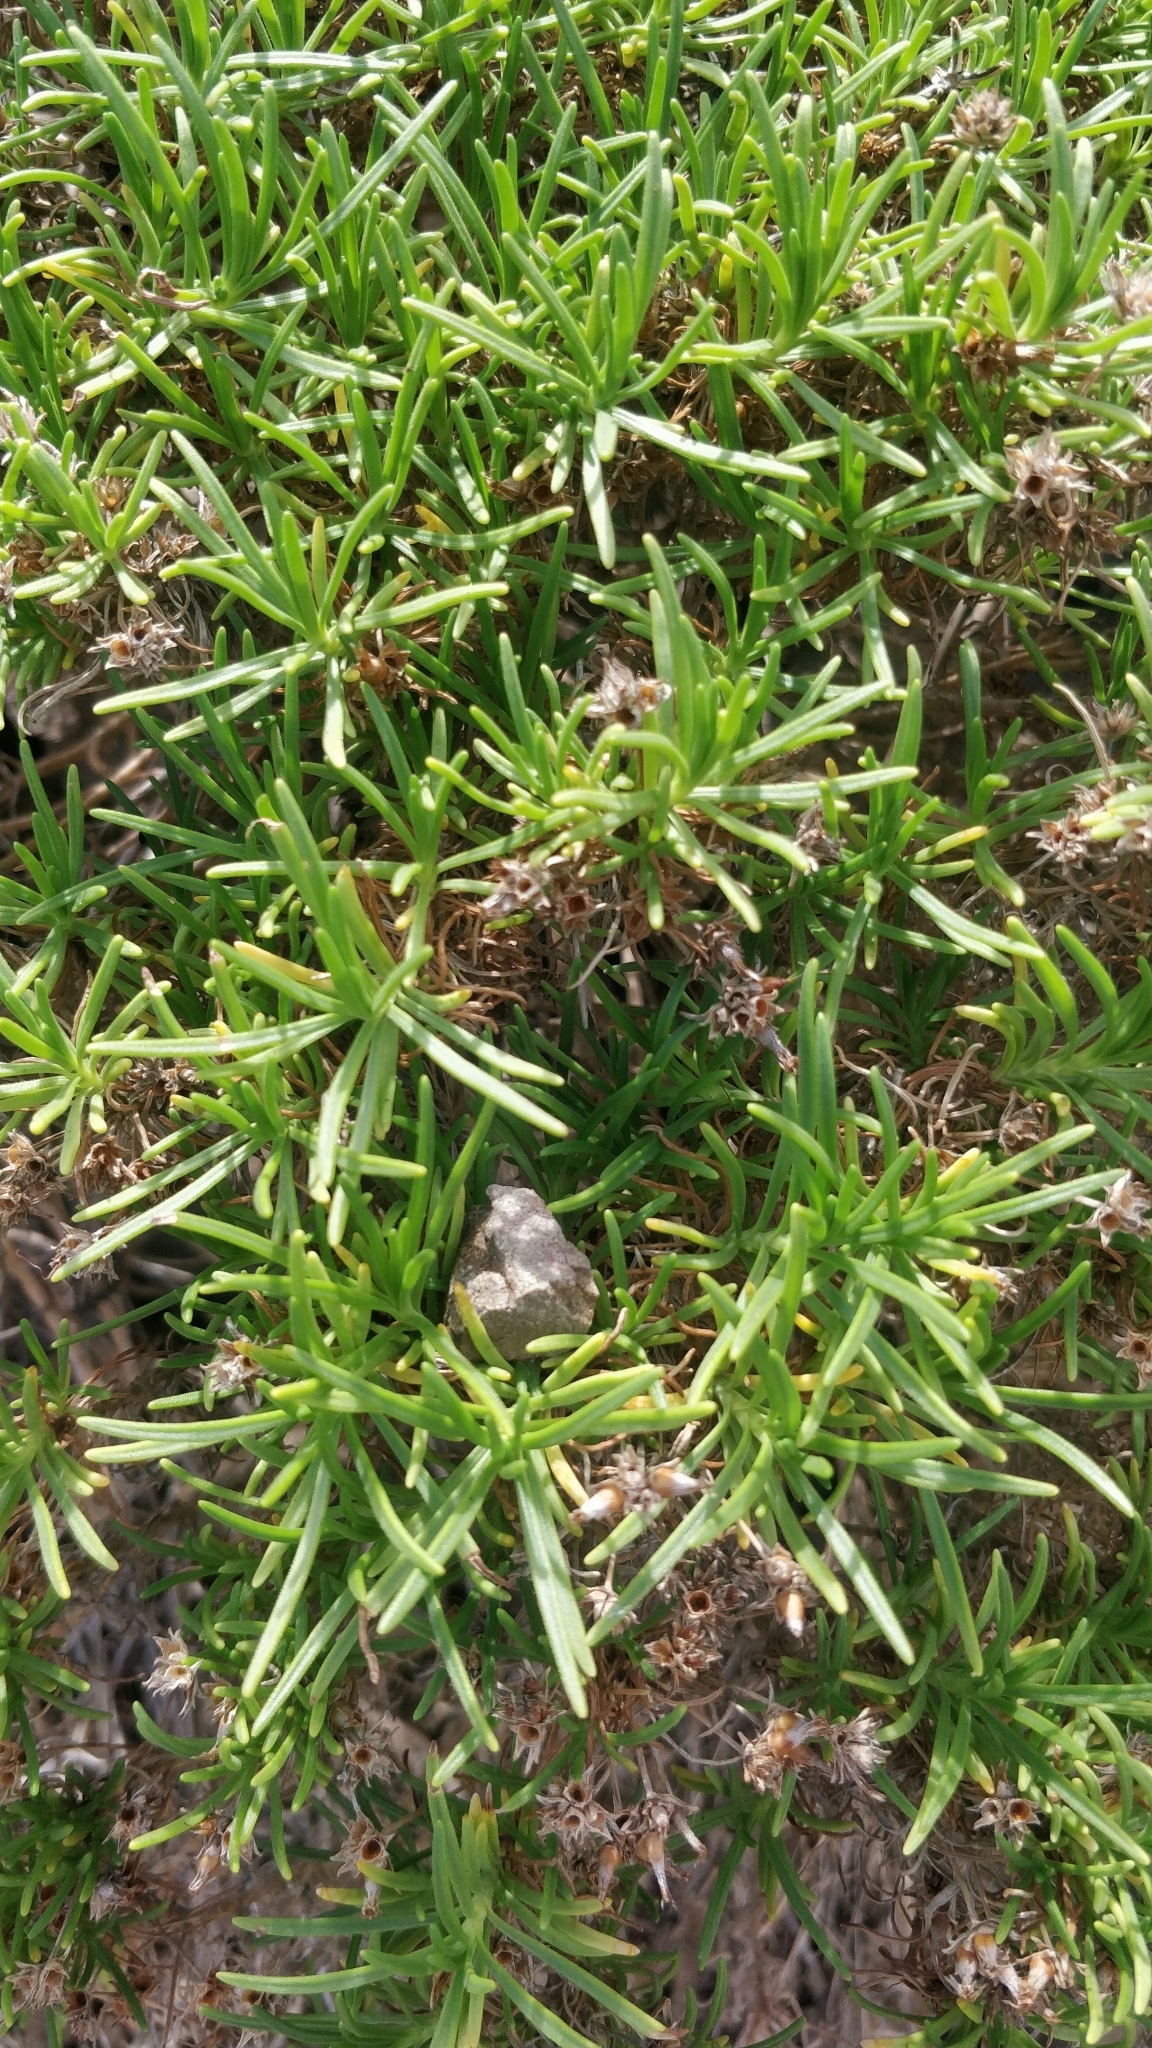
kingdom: Plantae
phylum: Tracheophyta
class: Magnoliopsida
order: Lamiales
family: Plantaginaceae
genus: Plantago
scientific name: Plantago arborescens
